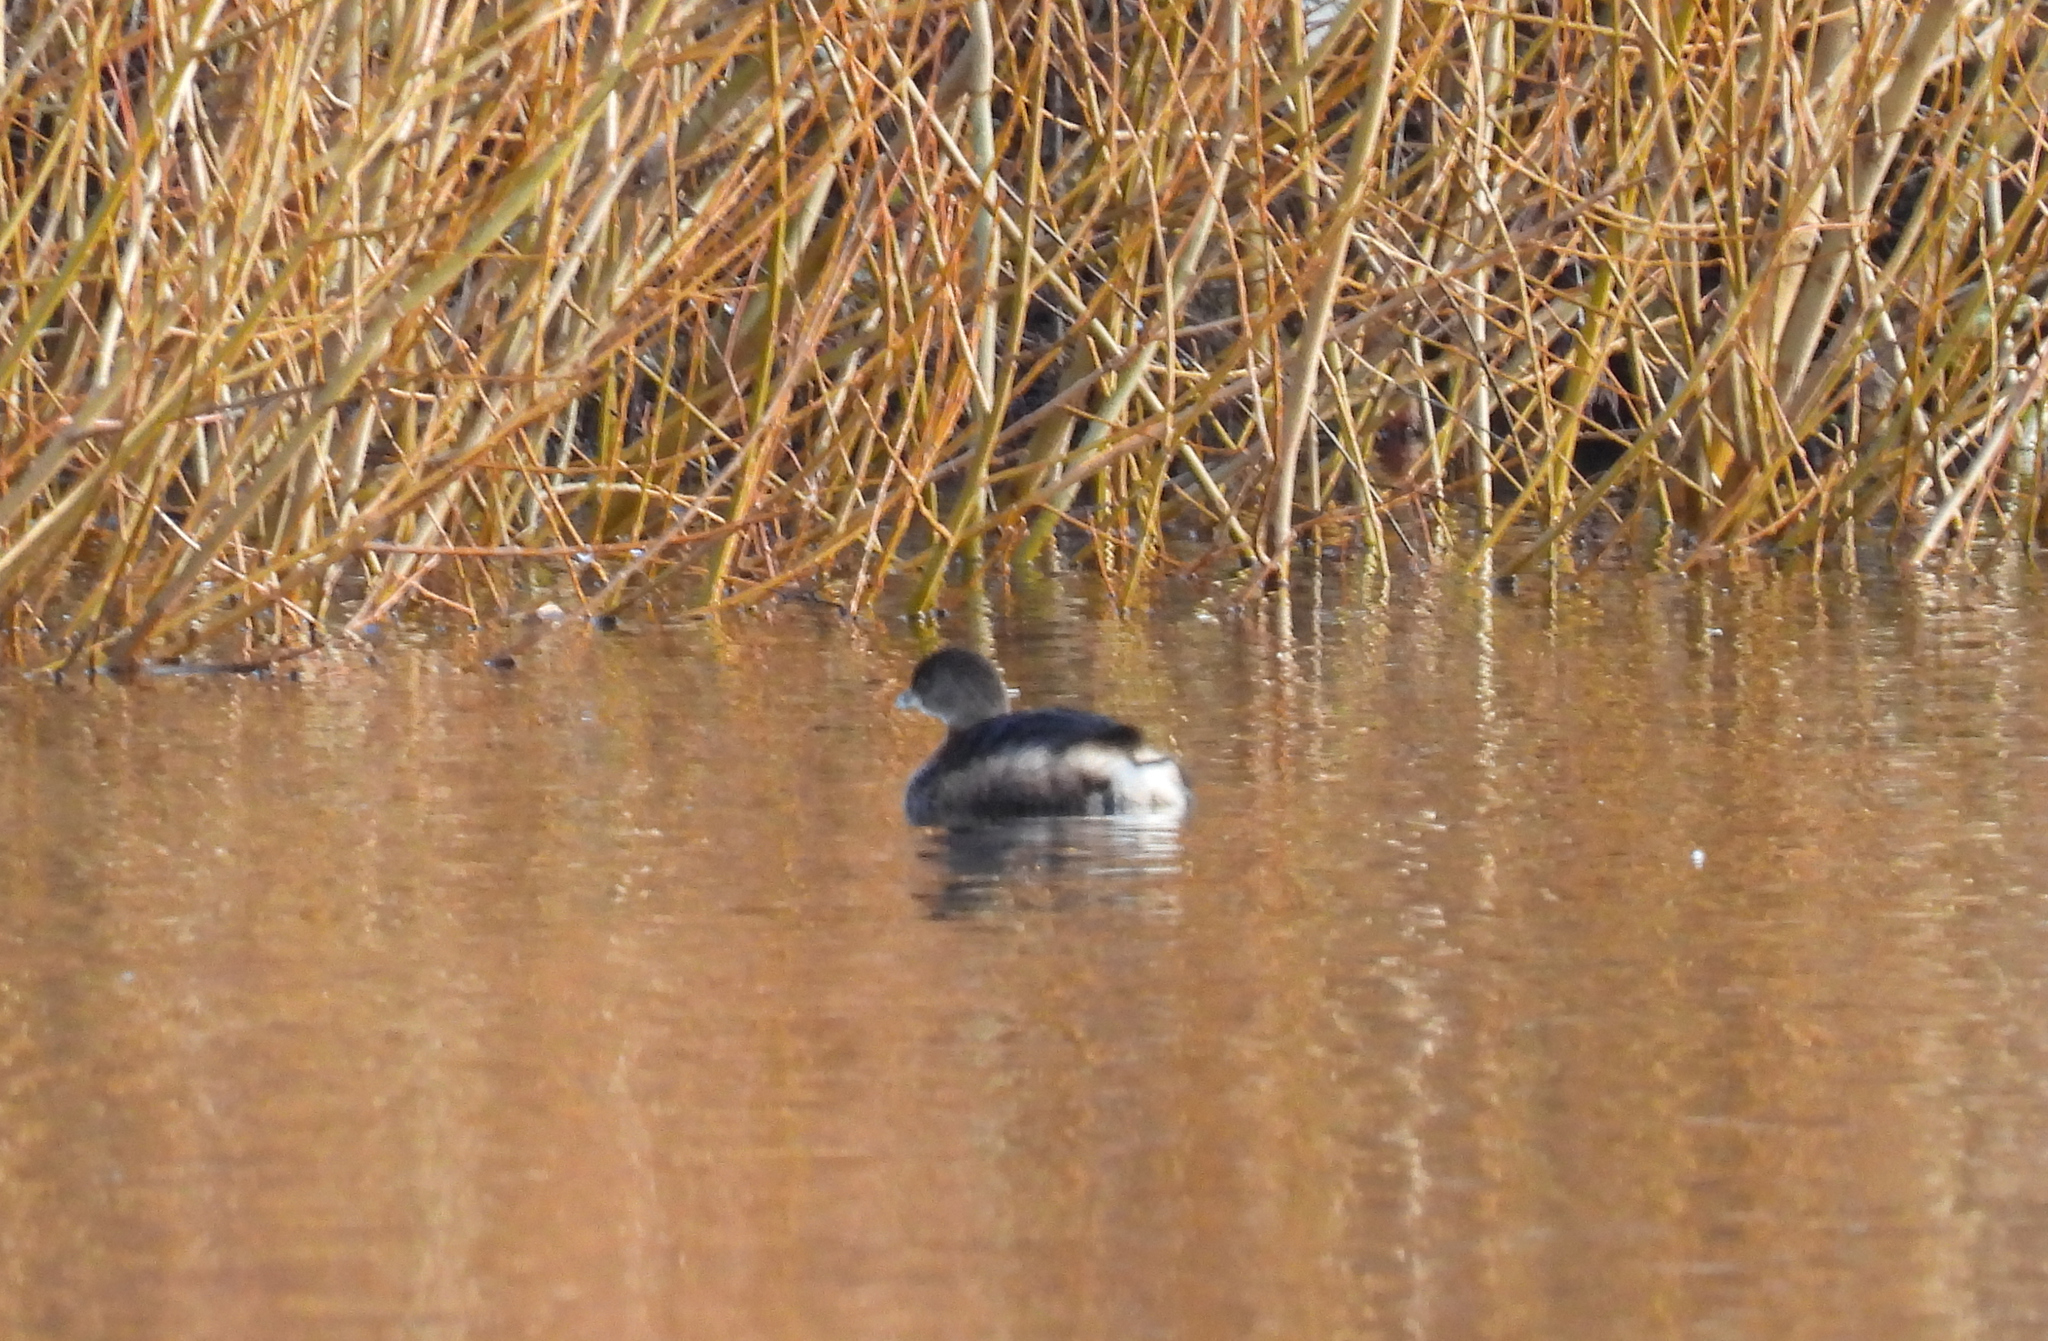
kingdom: Animalia
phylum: Chordata
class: Aves
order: Podicipediformes
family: Podicipedidae
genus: Podilymbus
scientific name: Podilymbus podiceps
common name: Pied-billed grebe
